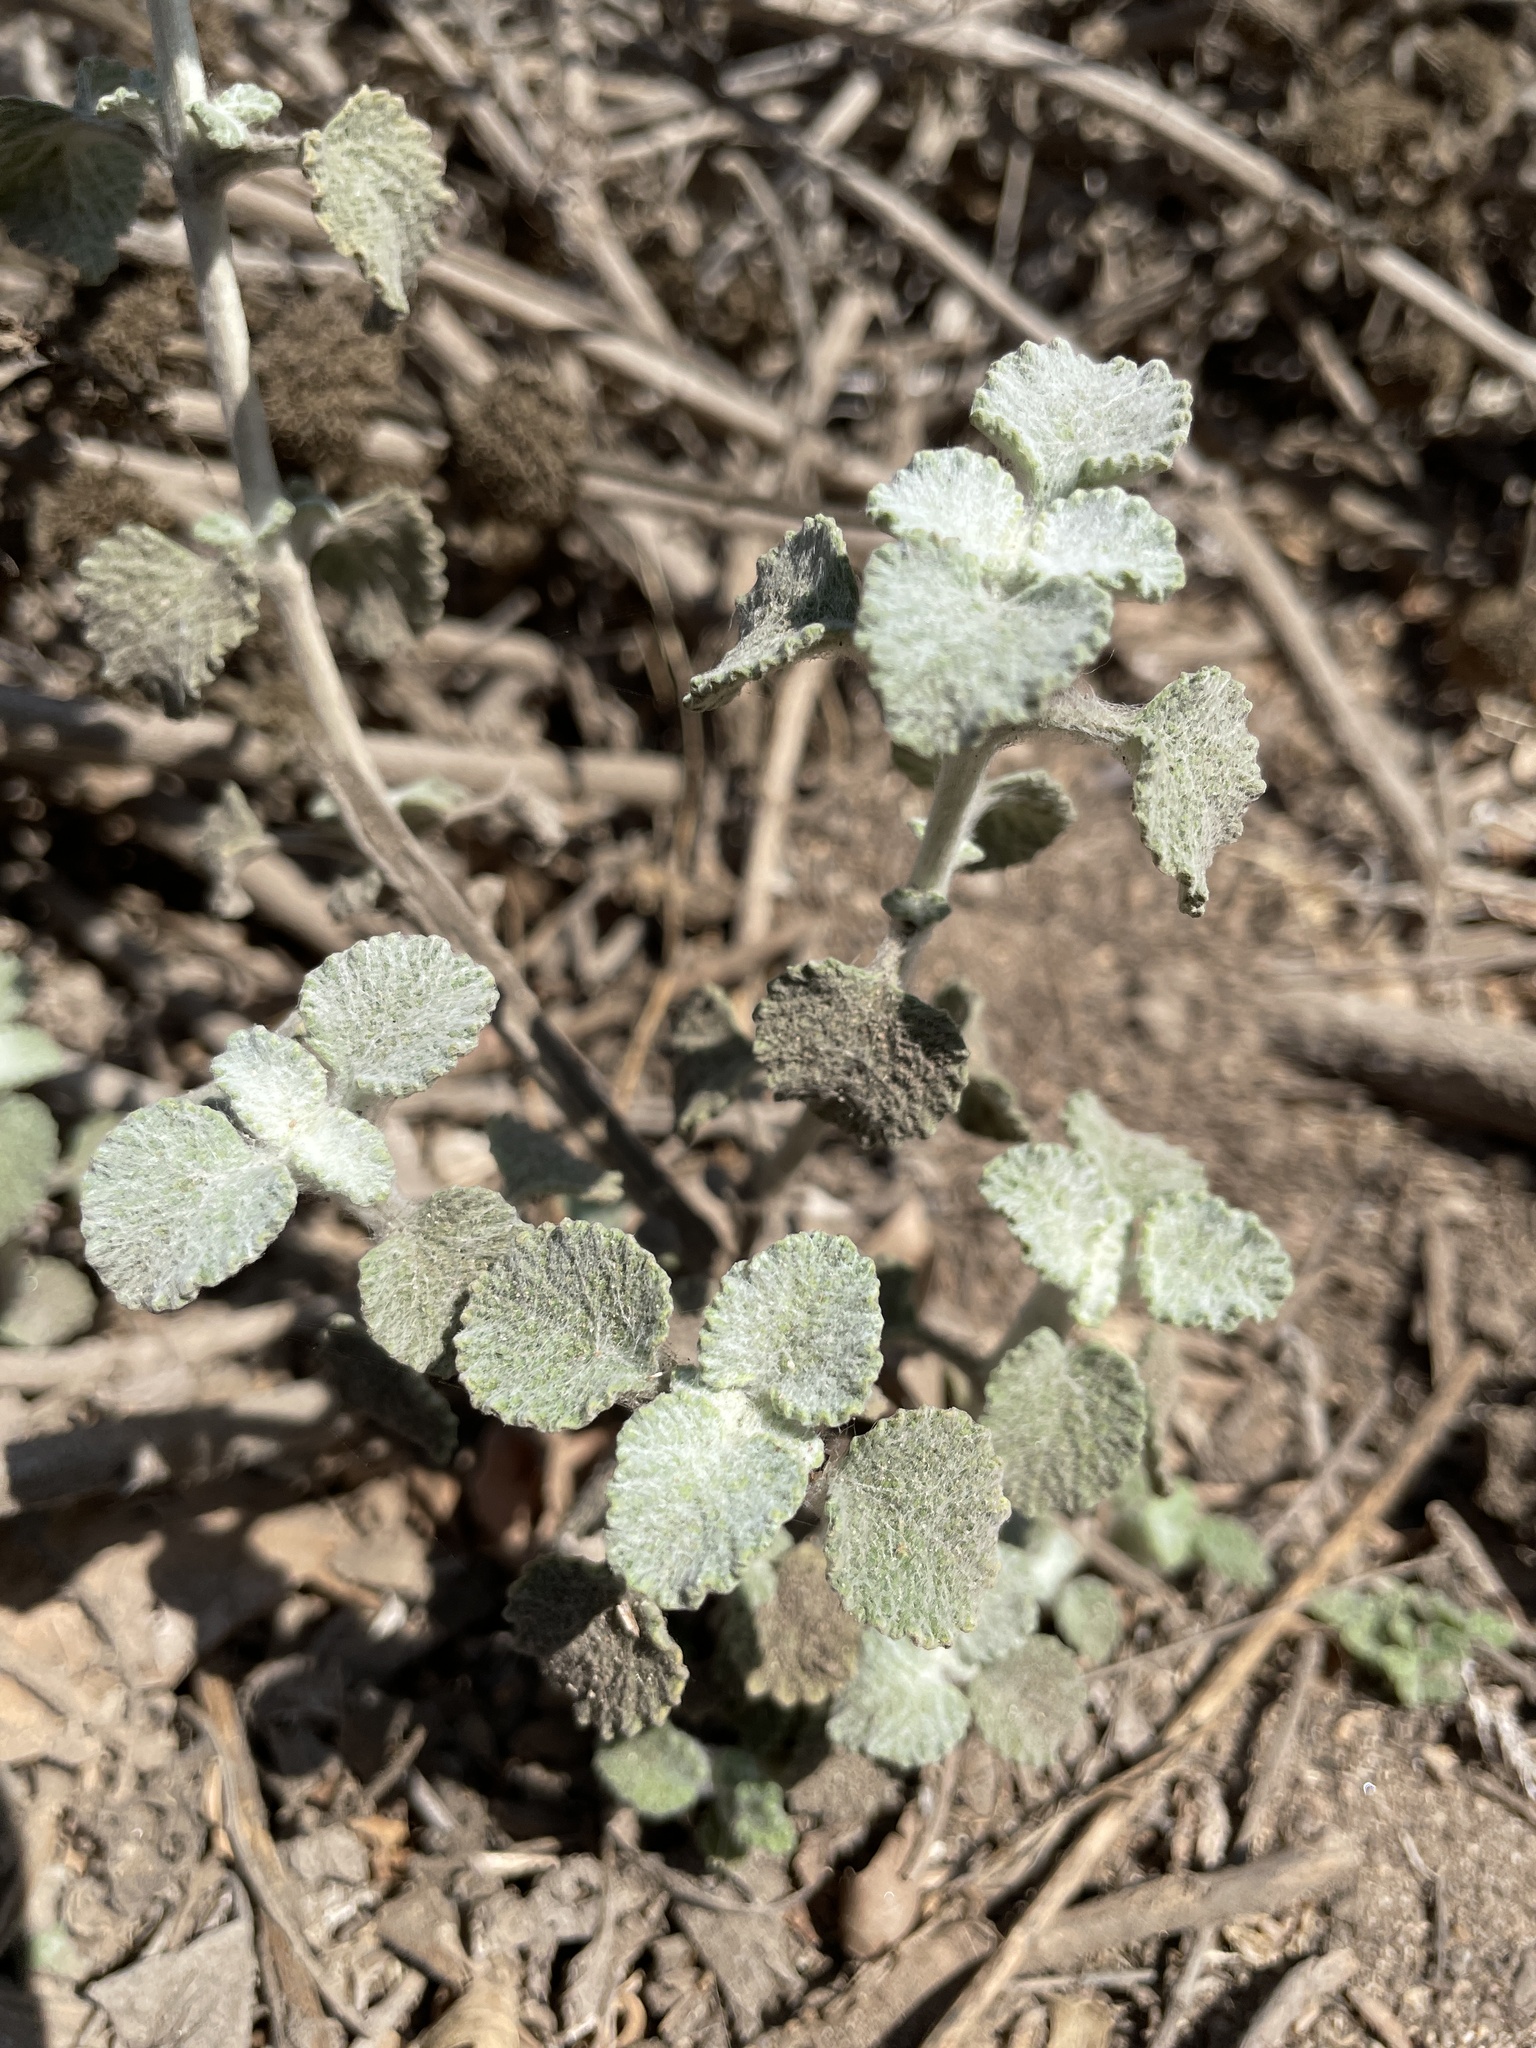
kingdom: Plantae
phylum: Tracheophyta
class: Magnoliopsida
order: Lamiales
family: Lamiaceae
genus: Marrubium
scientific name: Marrubium vulgare
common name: Horehound
